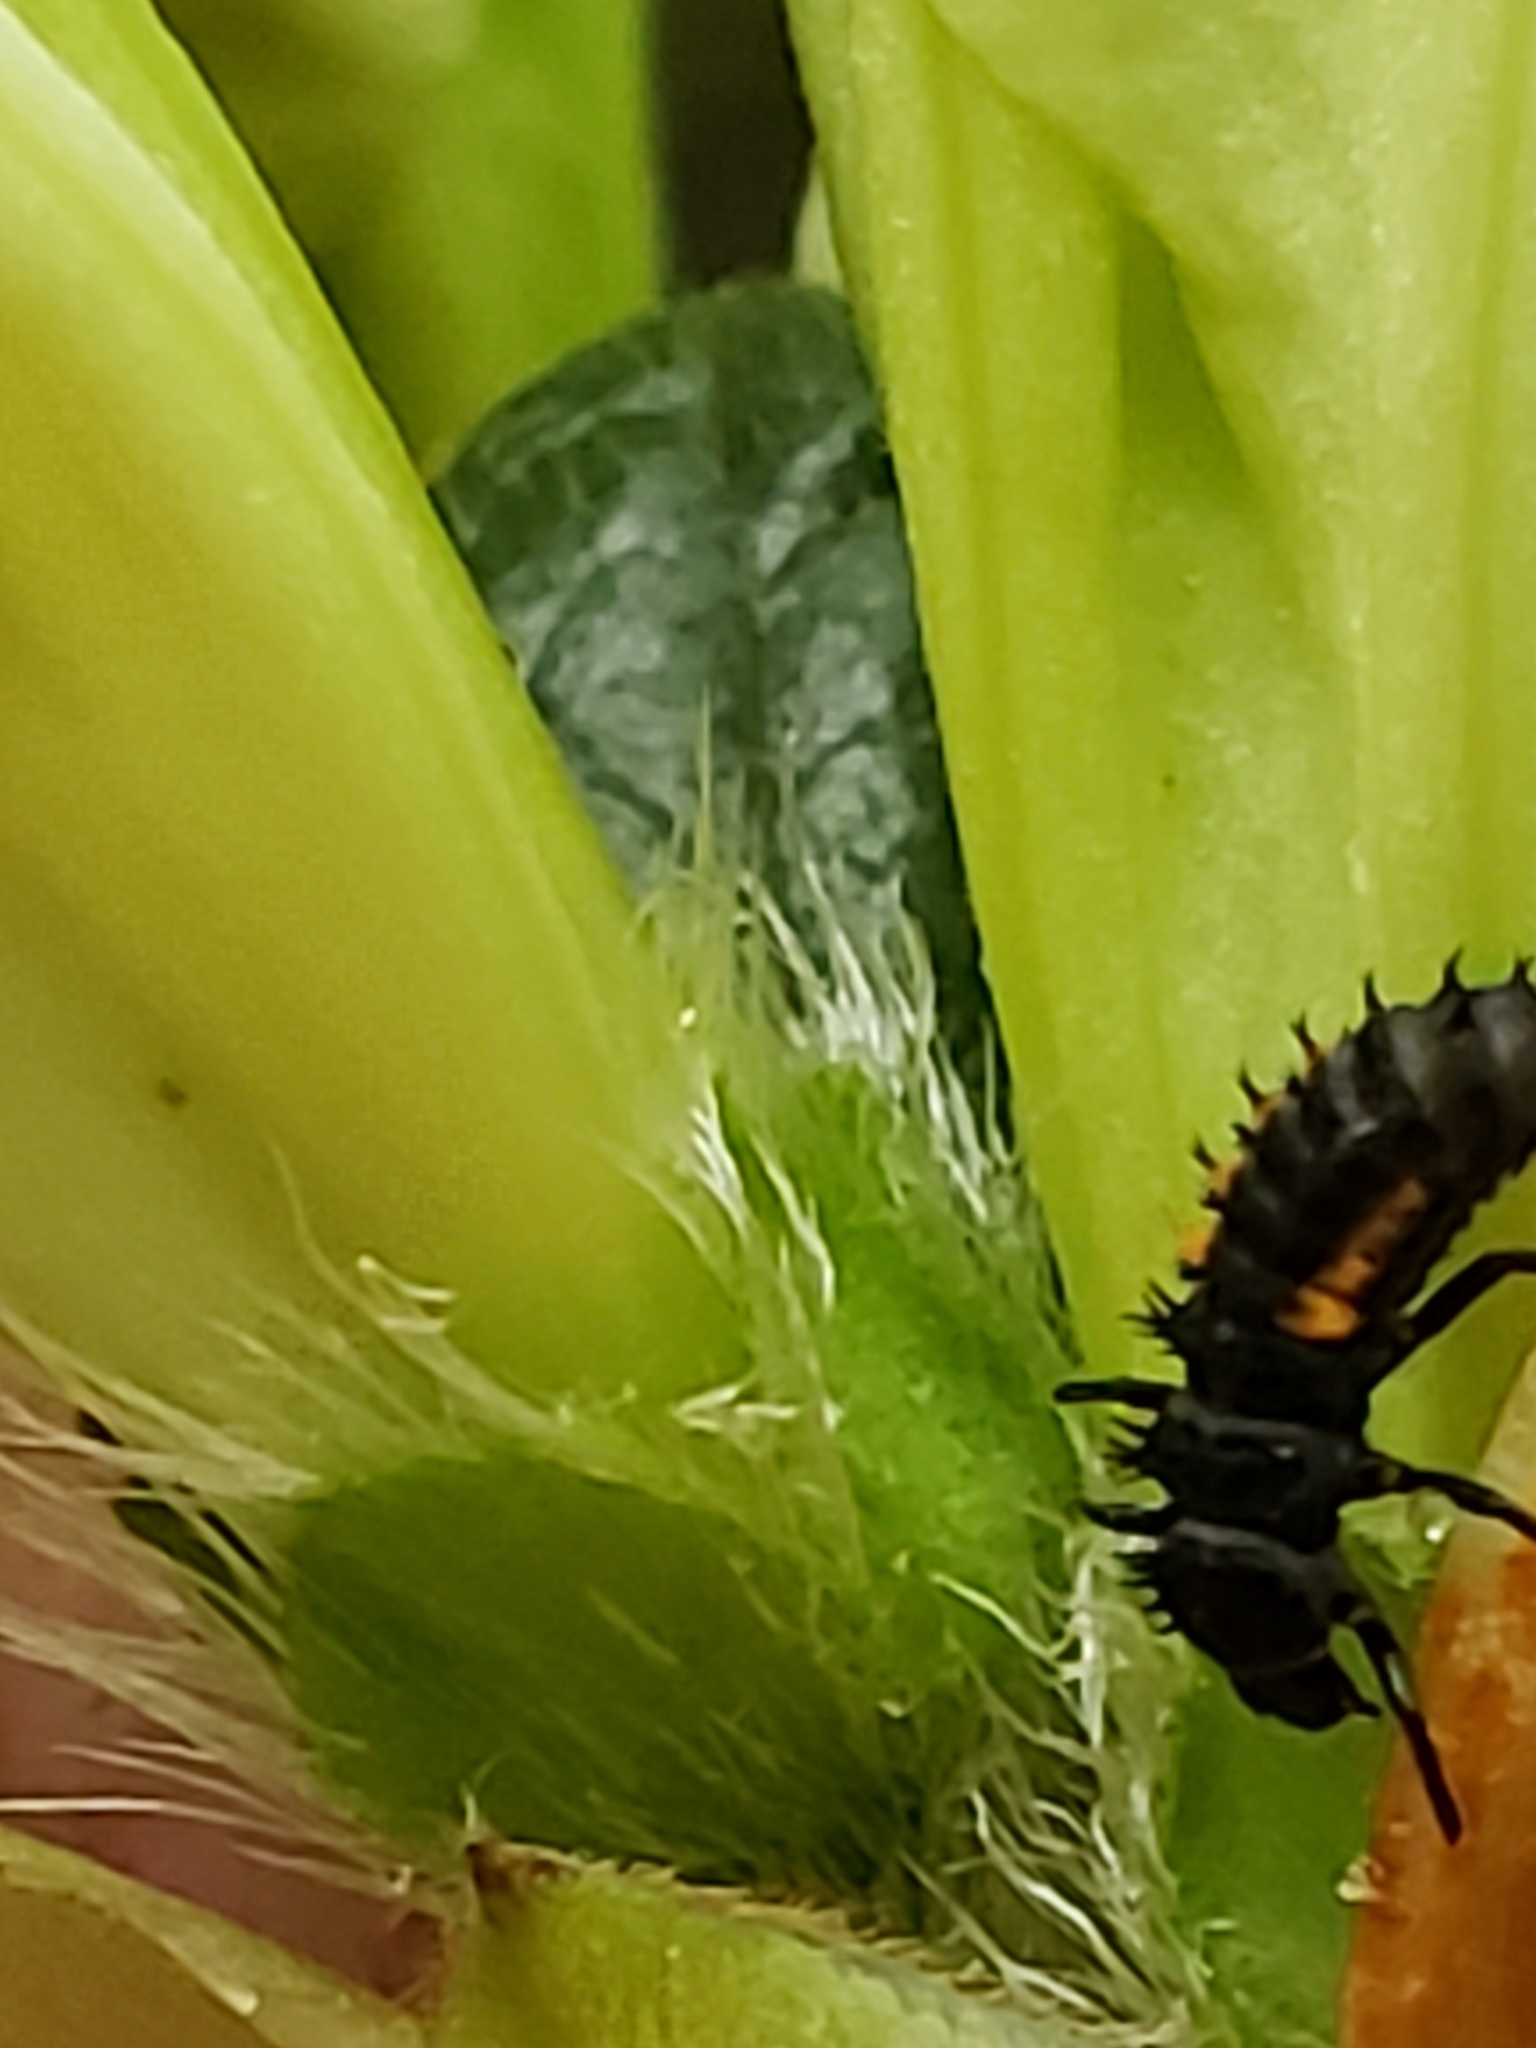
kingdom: Animalia
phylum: Arthropoda
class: Insecta
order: Coleoptera
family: Coccinellidae
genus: Harmonia
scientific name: Harmonia axyridis
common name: Harlequin ladybird
